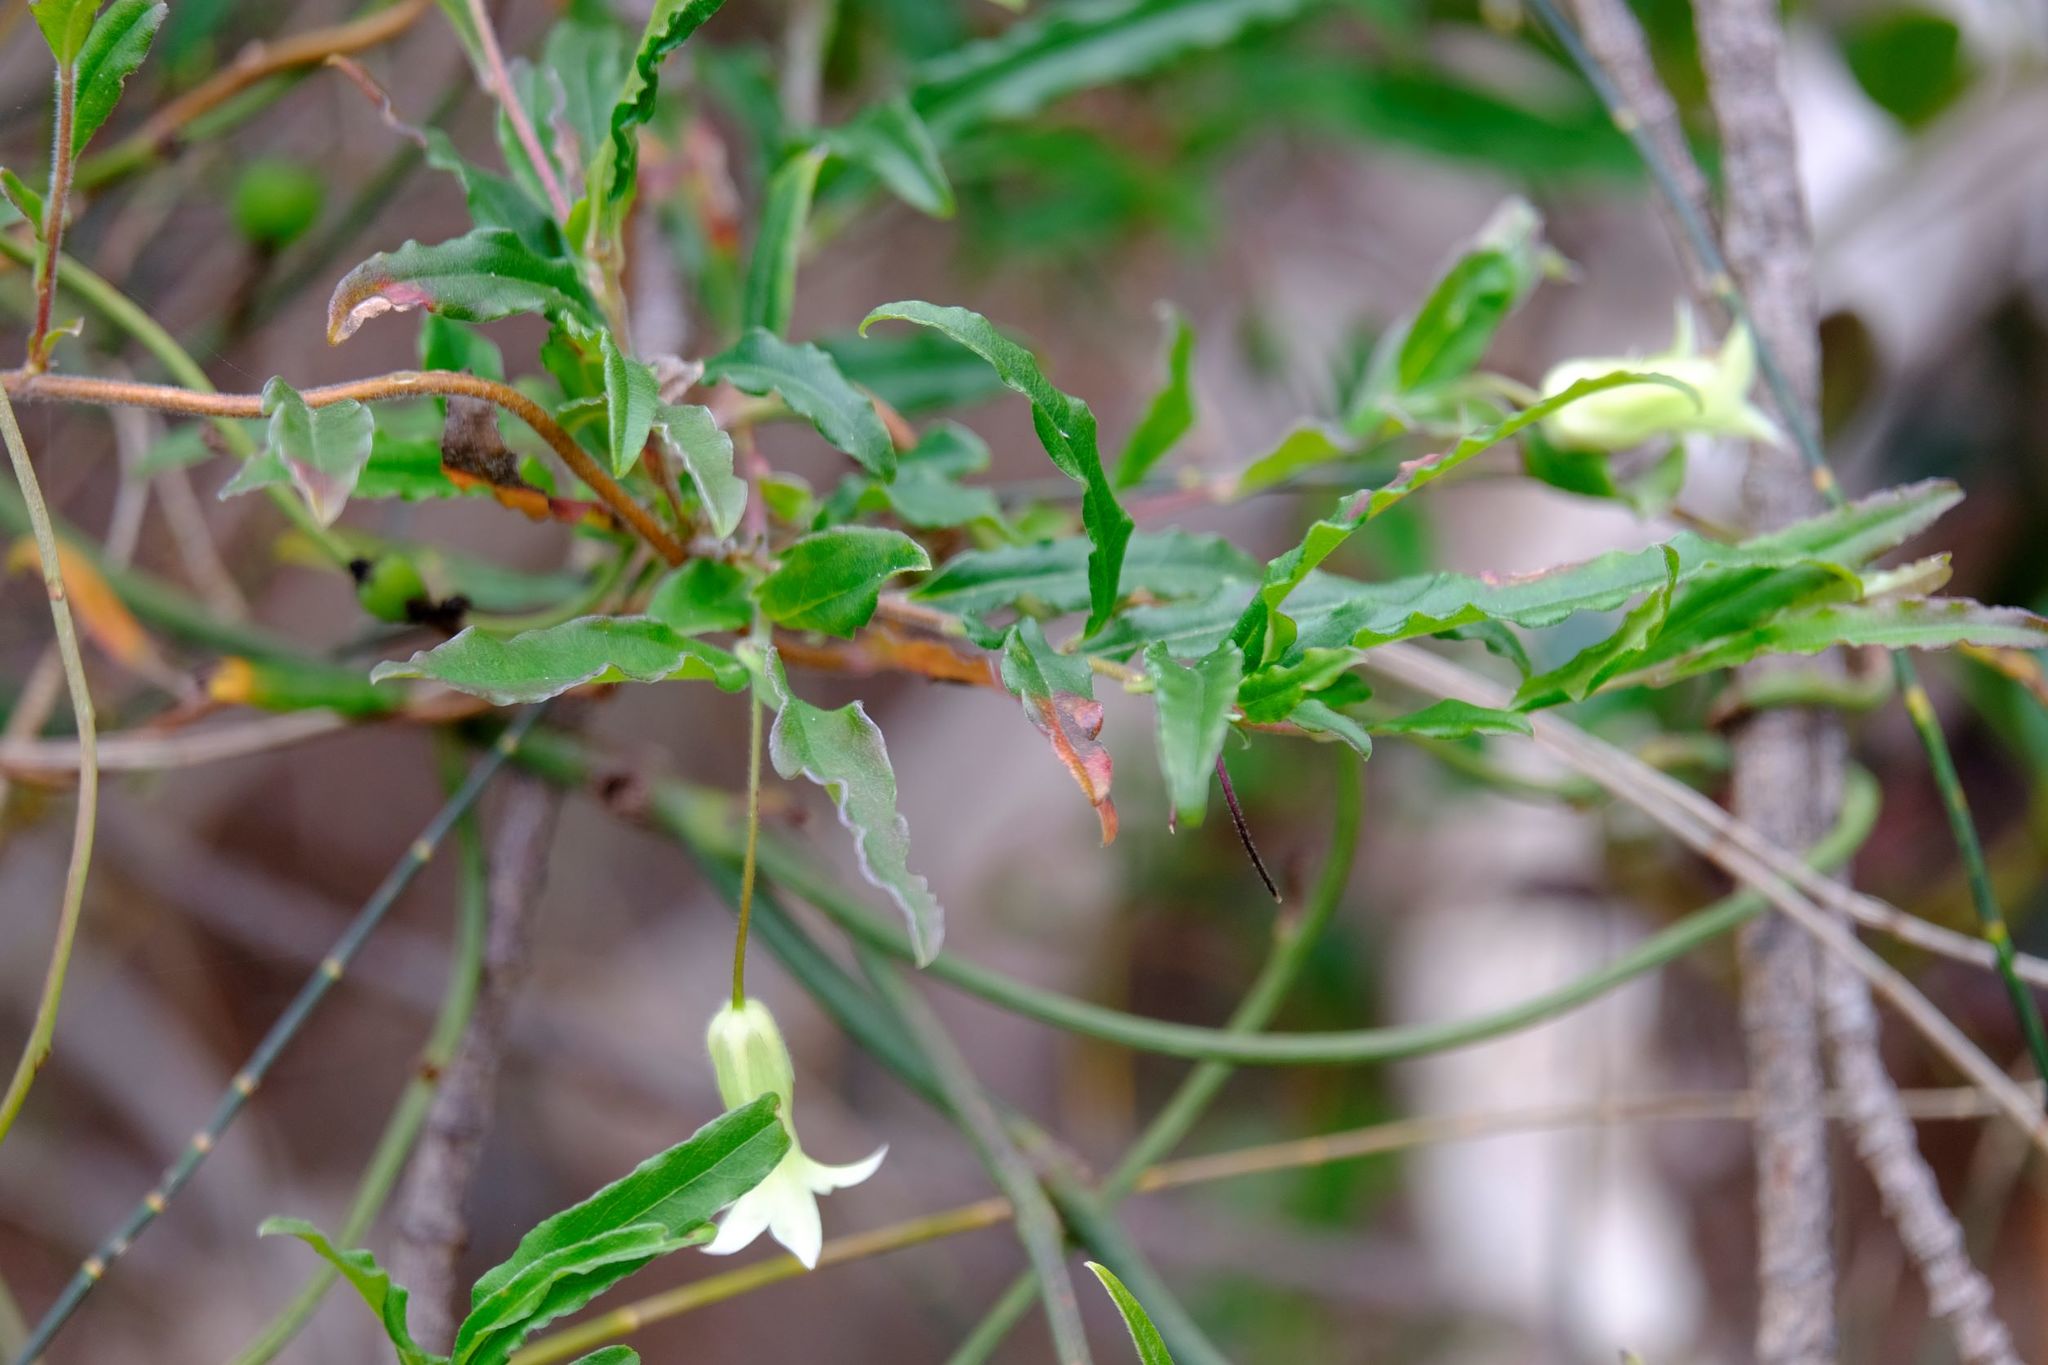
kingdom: Plantae
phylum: Tracheophyta
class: Magnoliopsida
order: Apiales
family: Pittosporaceae
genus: Billardiera
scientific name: Billardiera mutabilis
